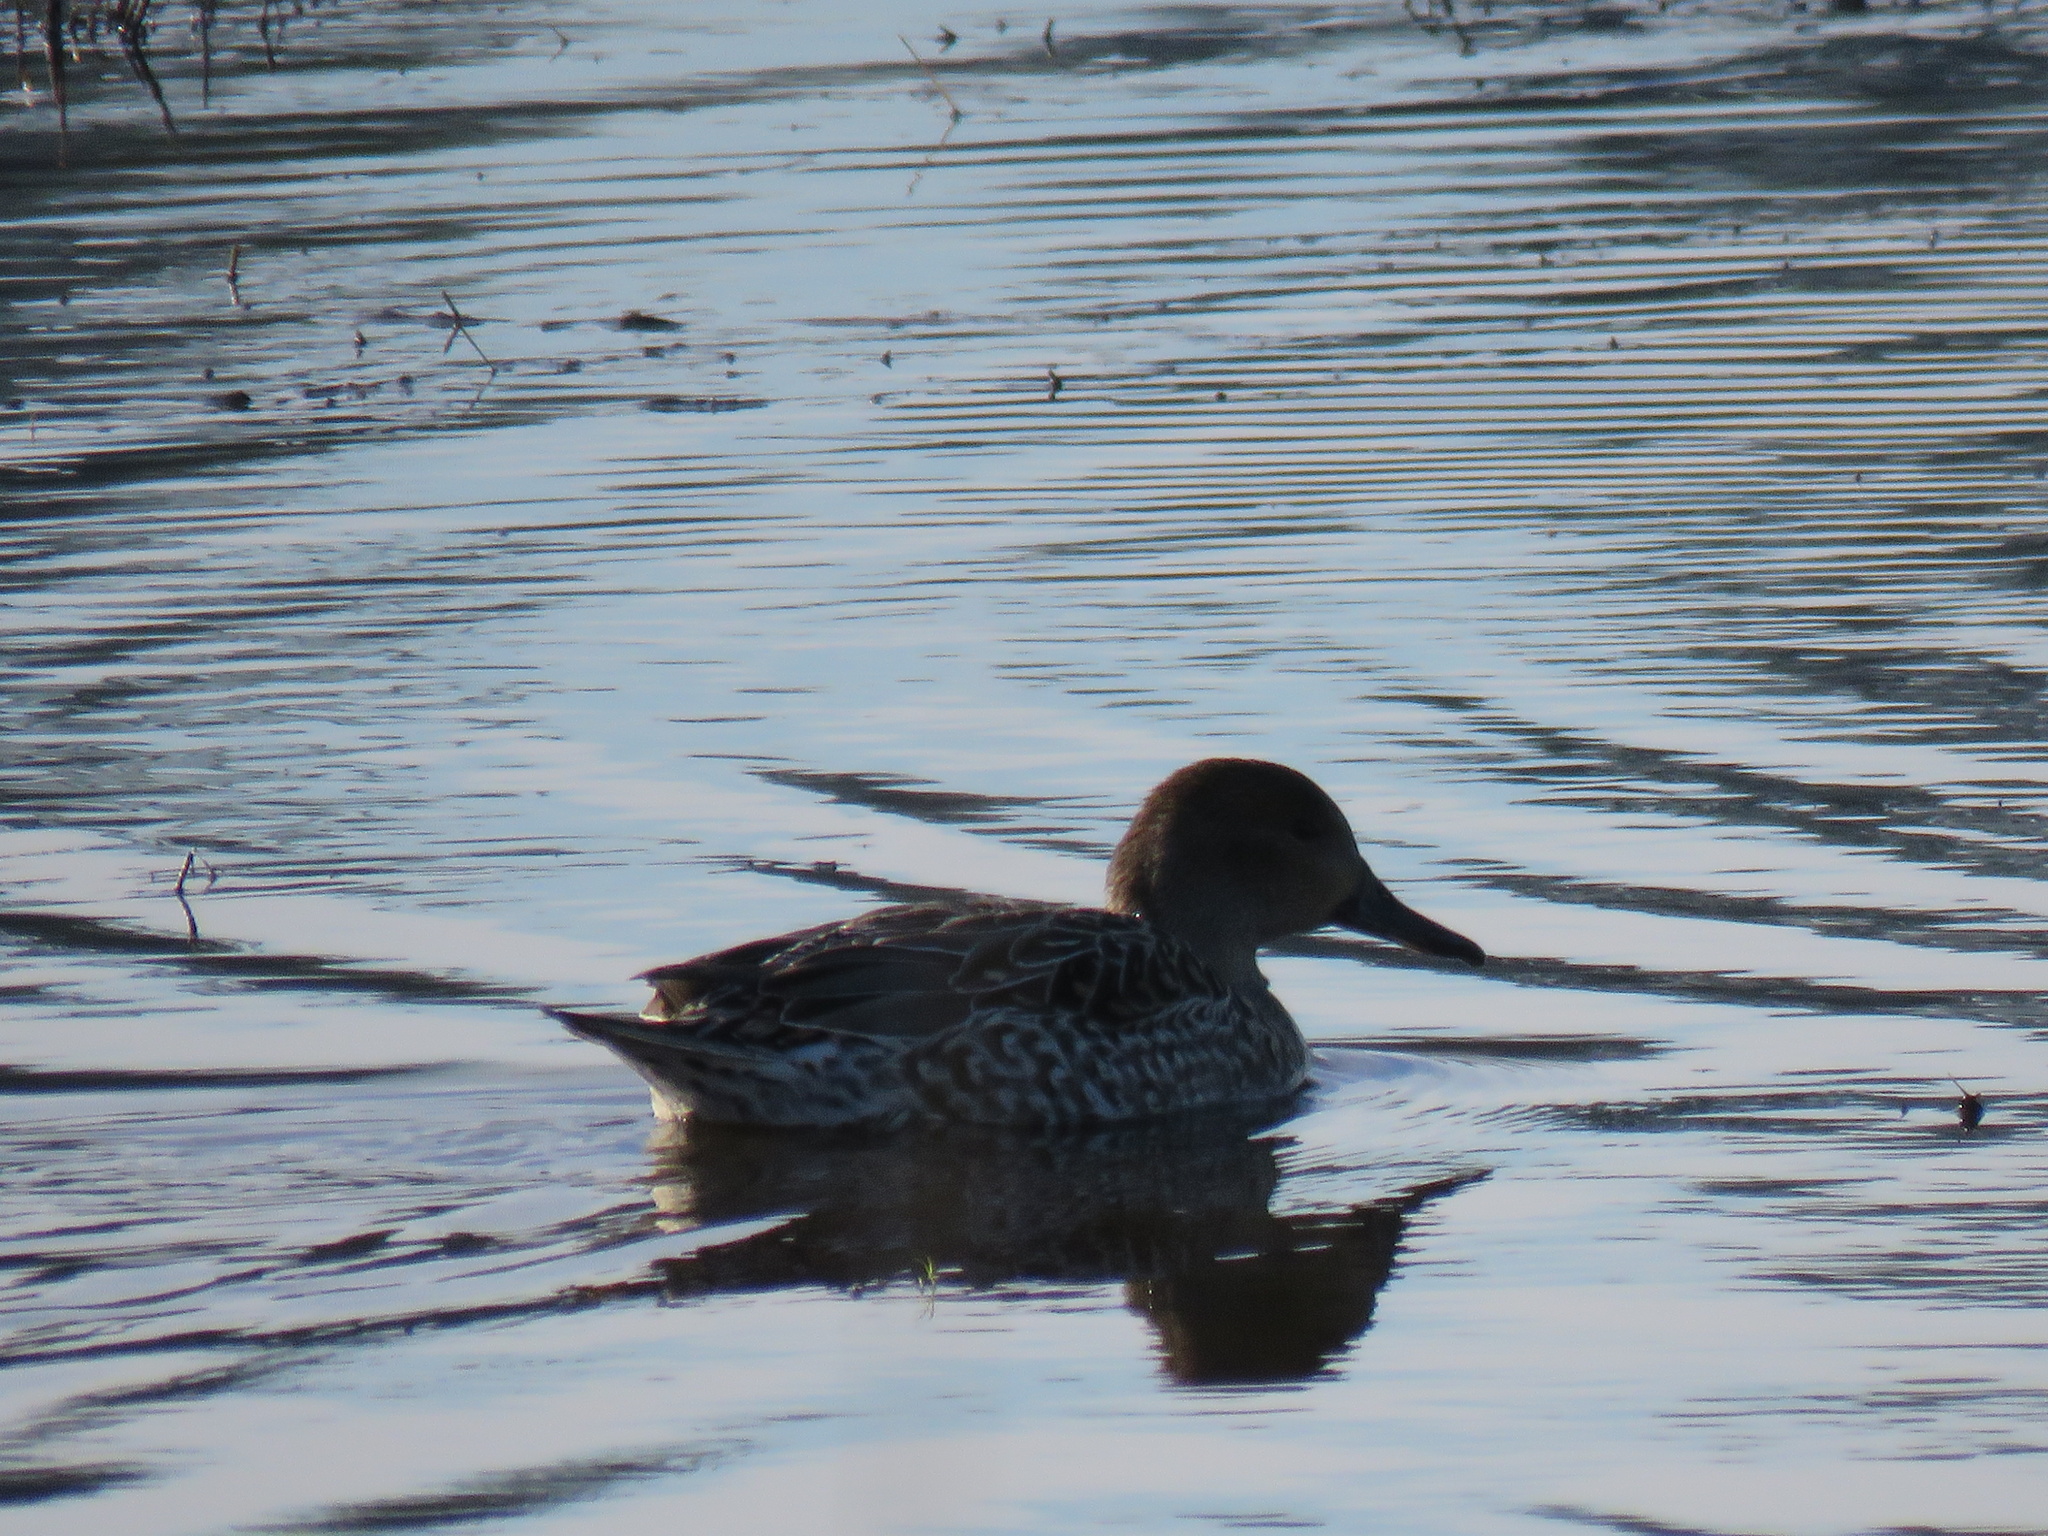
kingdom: Animalia
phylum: Chordata
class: Aves
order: Anseriformes
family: Anatidae
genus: Anas
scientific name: Anas acuta
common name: Northern pintail
